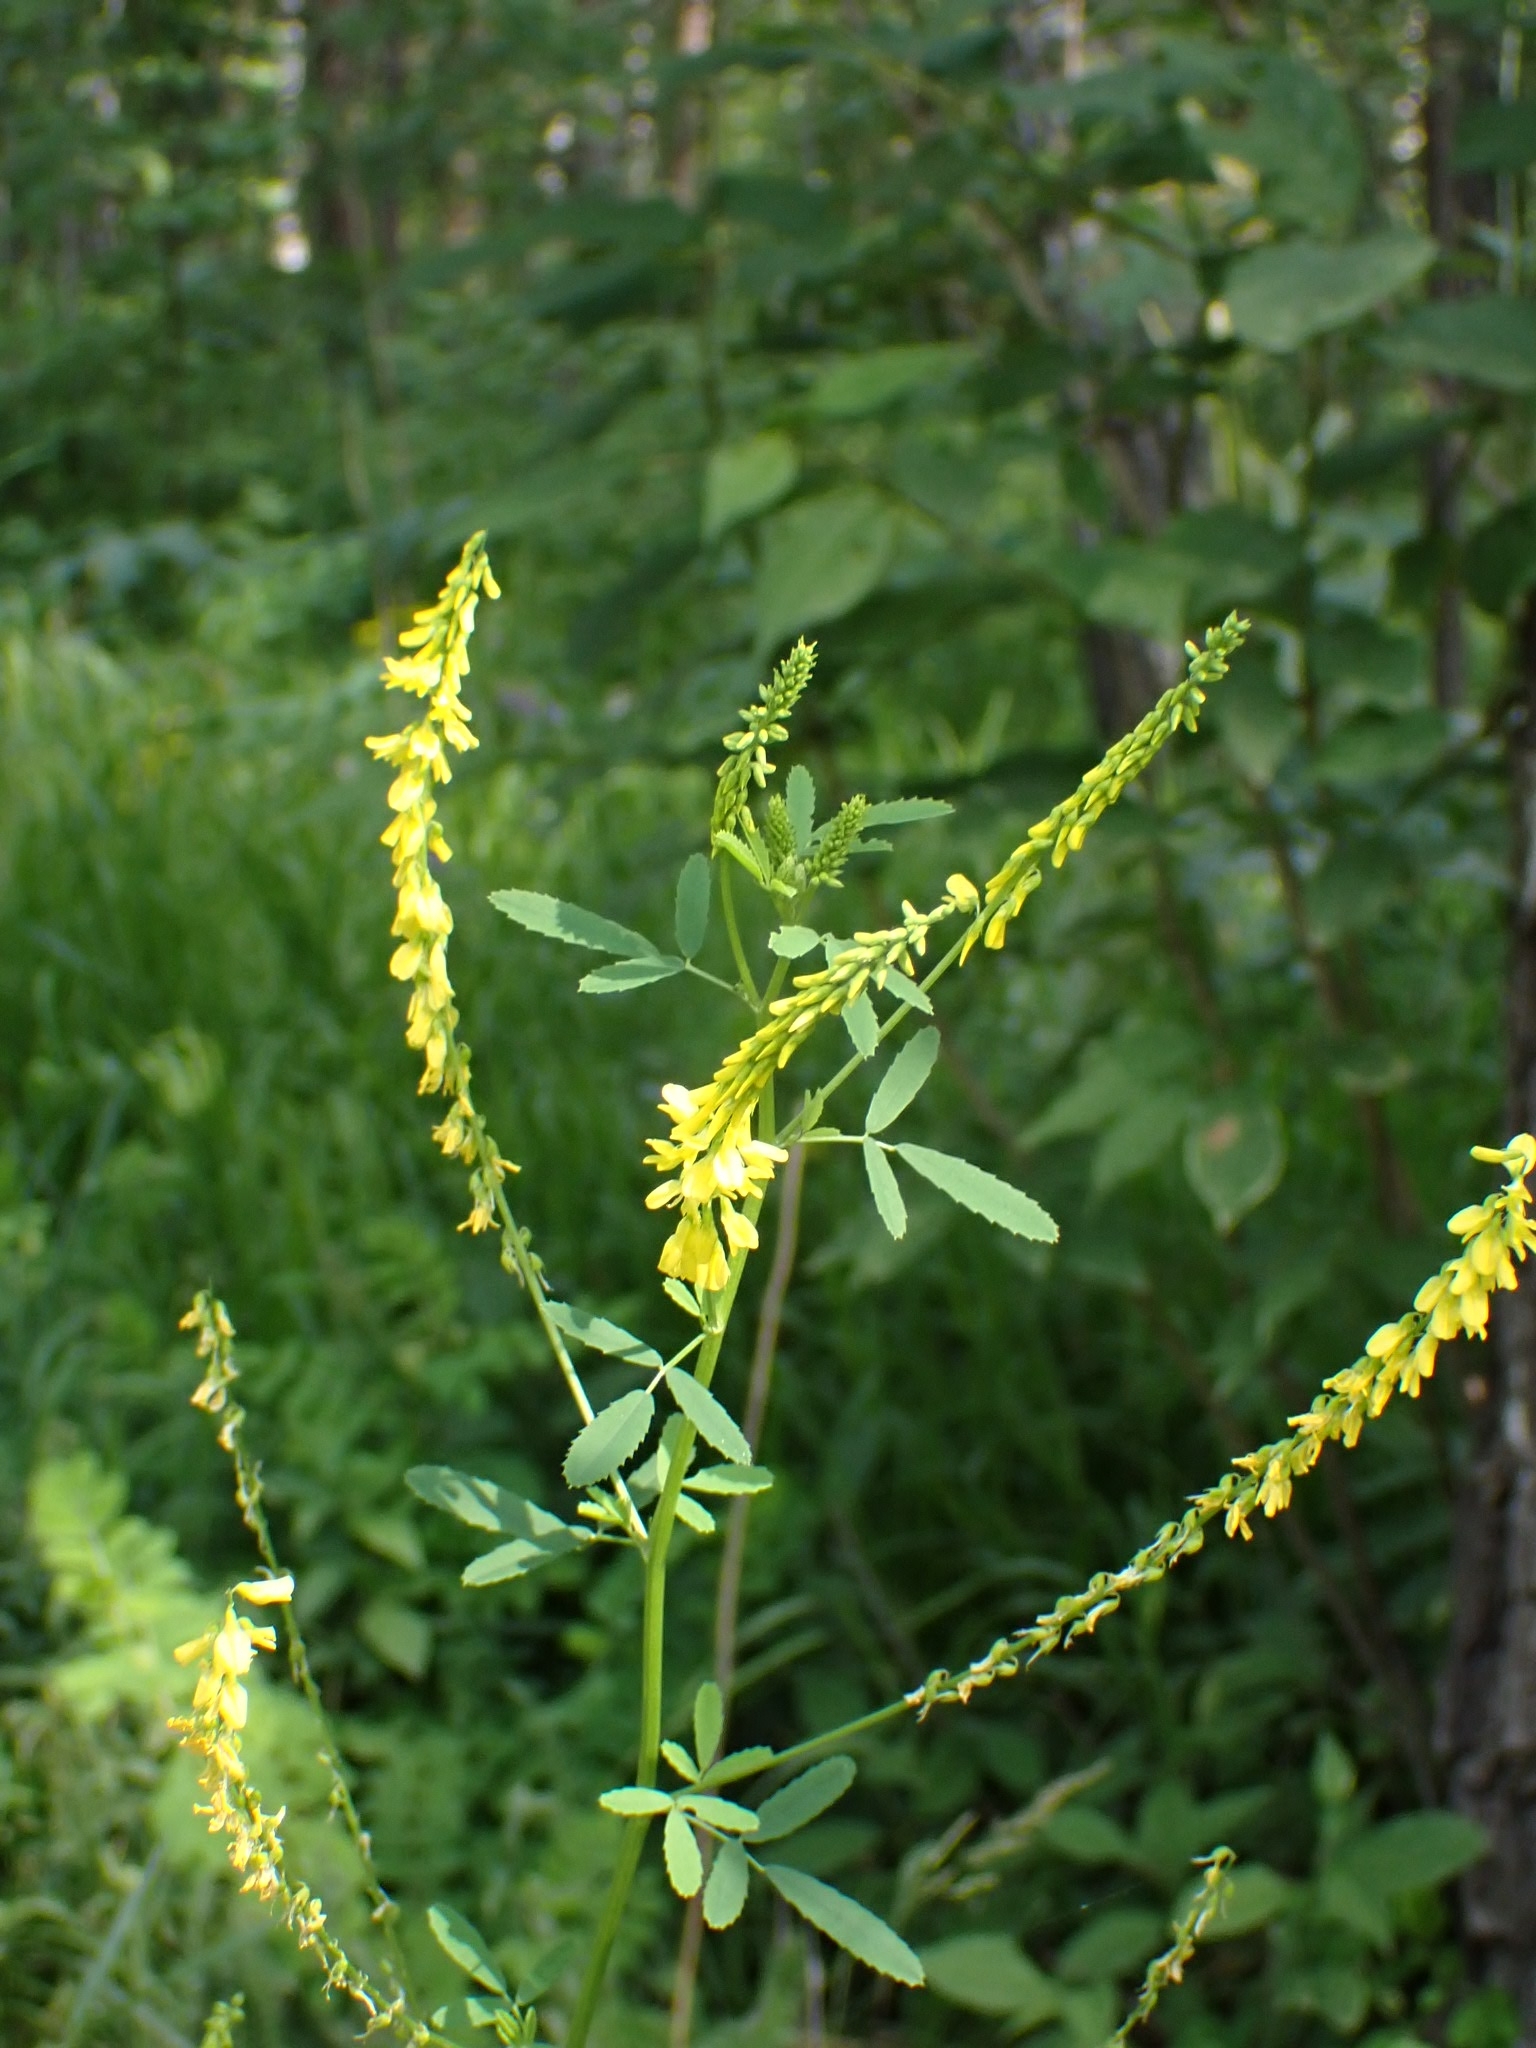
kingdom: Plantae
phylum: Tracheophyta
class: Magnoliopsida
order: Fabales
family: Fabaceae
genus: Melilotus
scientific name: Melilotus officinalis
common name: Sweetclover
